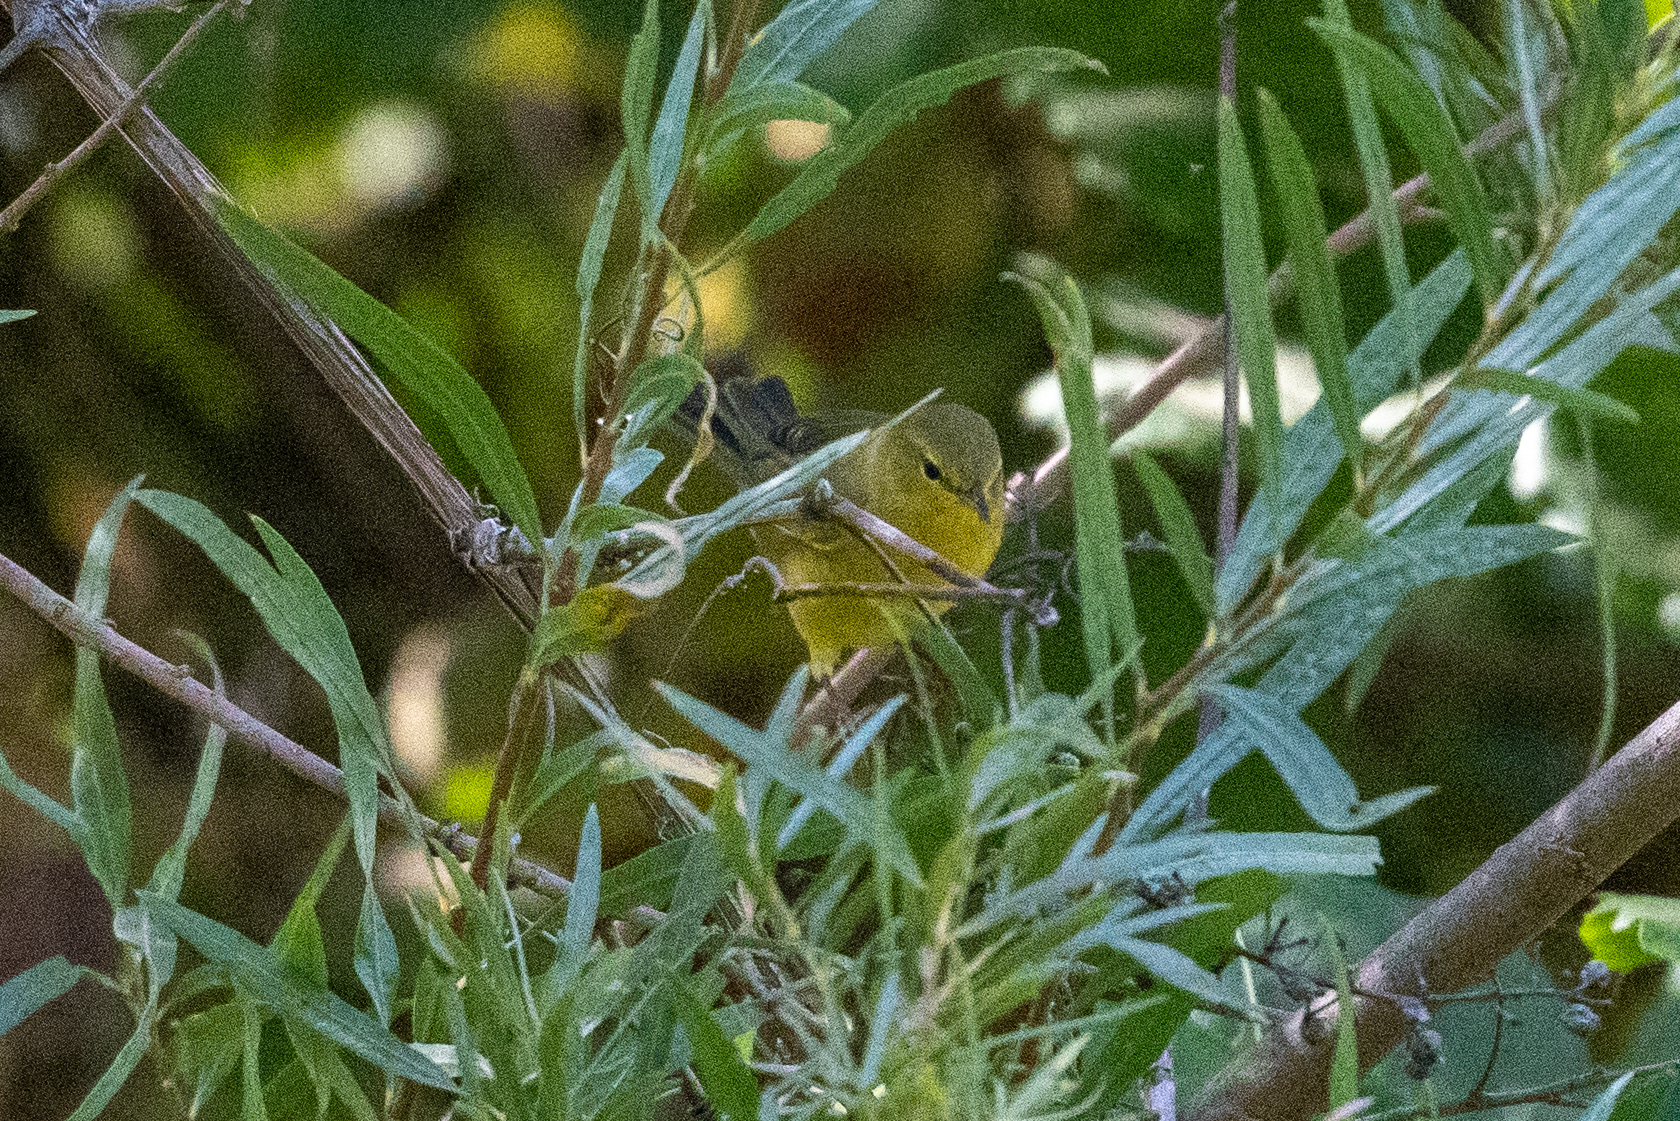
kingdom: Animalia
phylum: Chordata
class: Aves
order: Passeriformes
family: Parulidae
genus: Leiothlypis
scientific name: Leiothlypis celata
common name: Orange-crowned warbler
